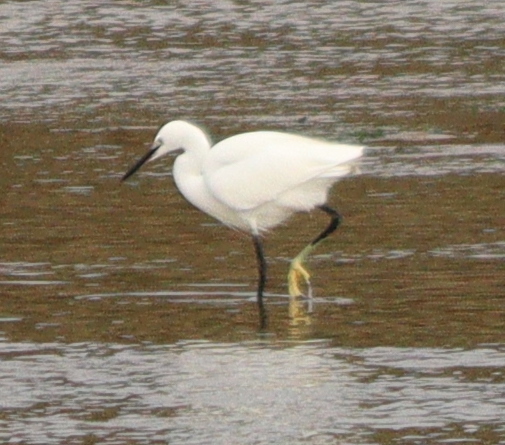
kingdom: Animalia
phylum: Chordata
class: Aves
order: Pelecaniformes
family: Ardeidae
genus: Egretta
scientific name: Egretta garzetta
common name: Little egret
